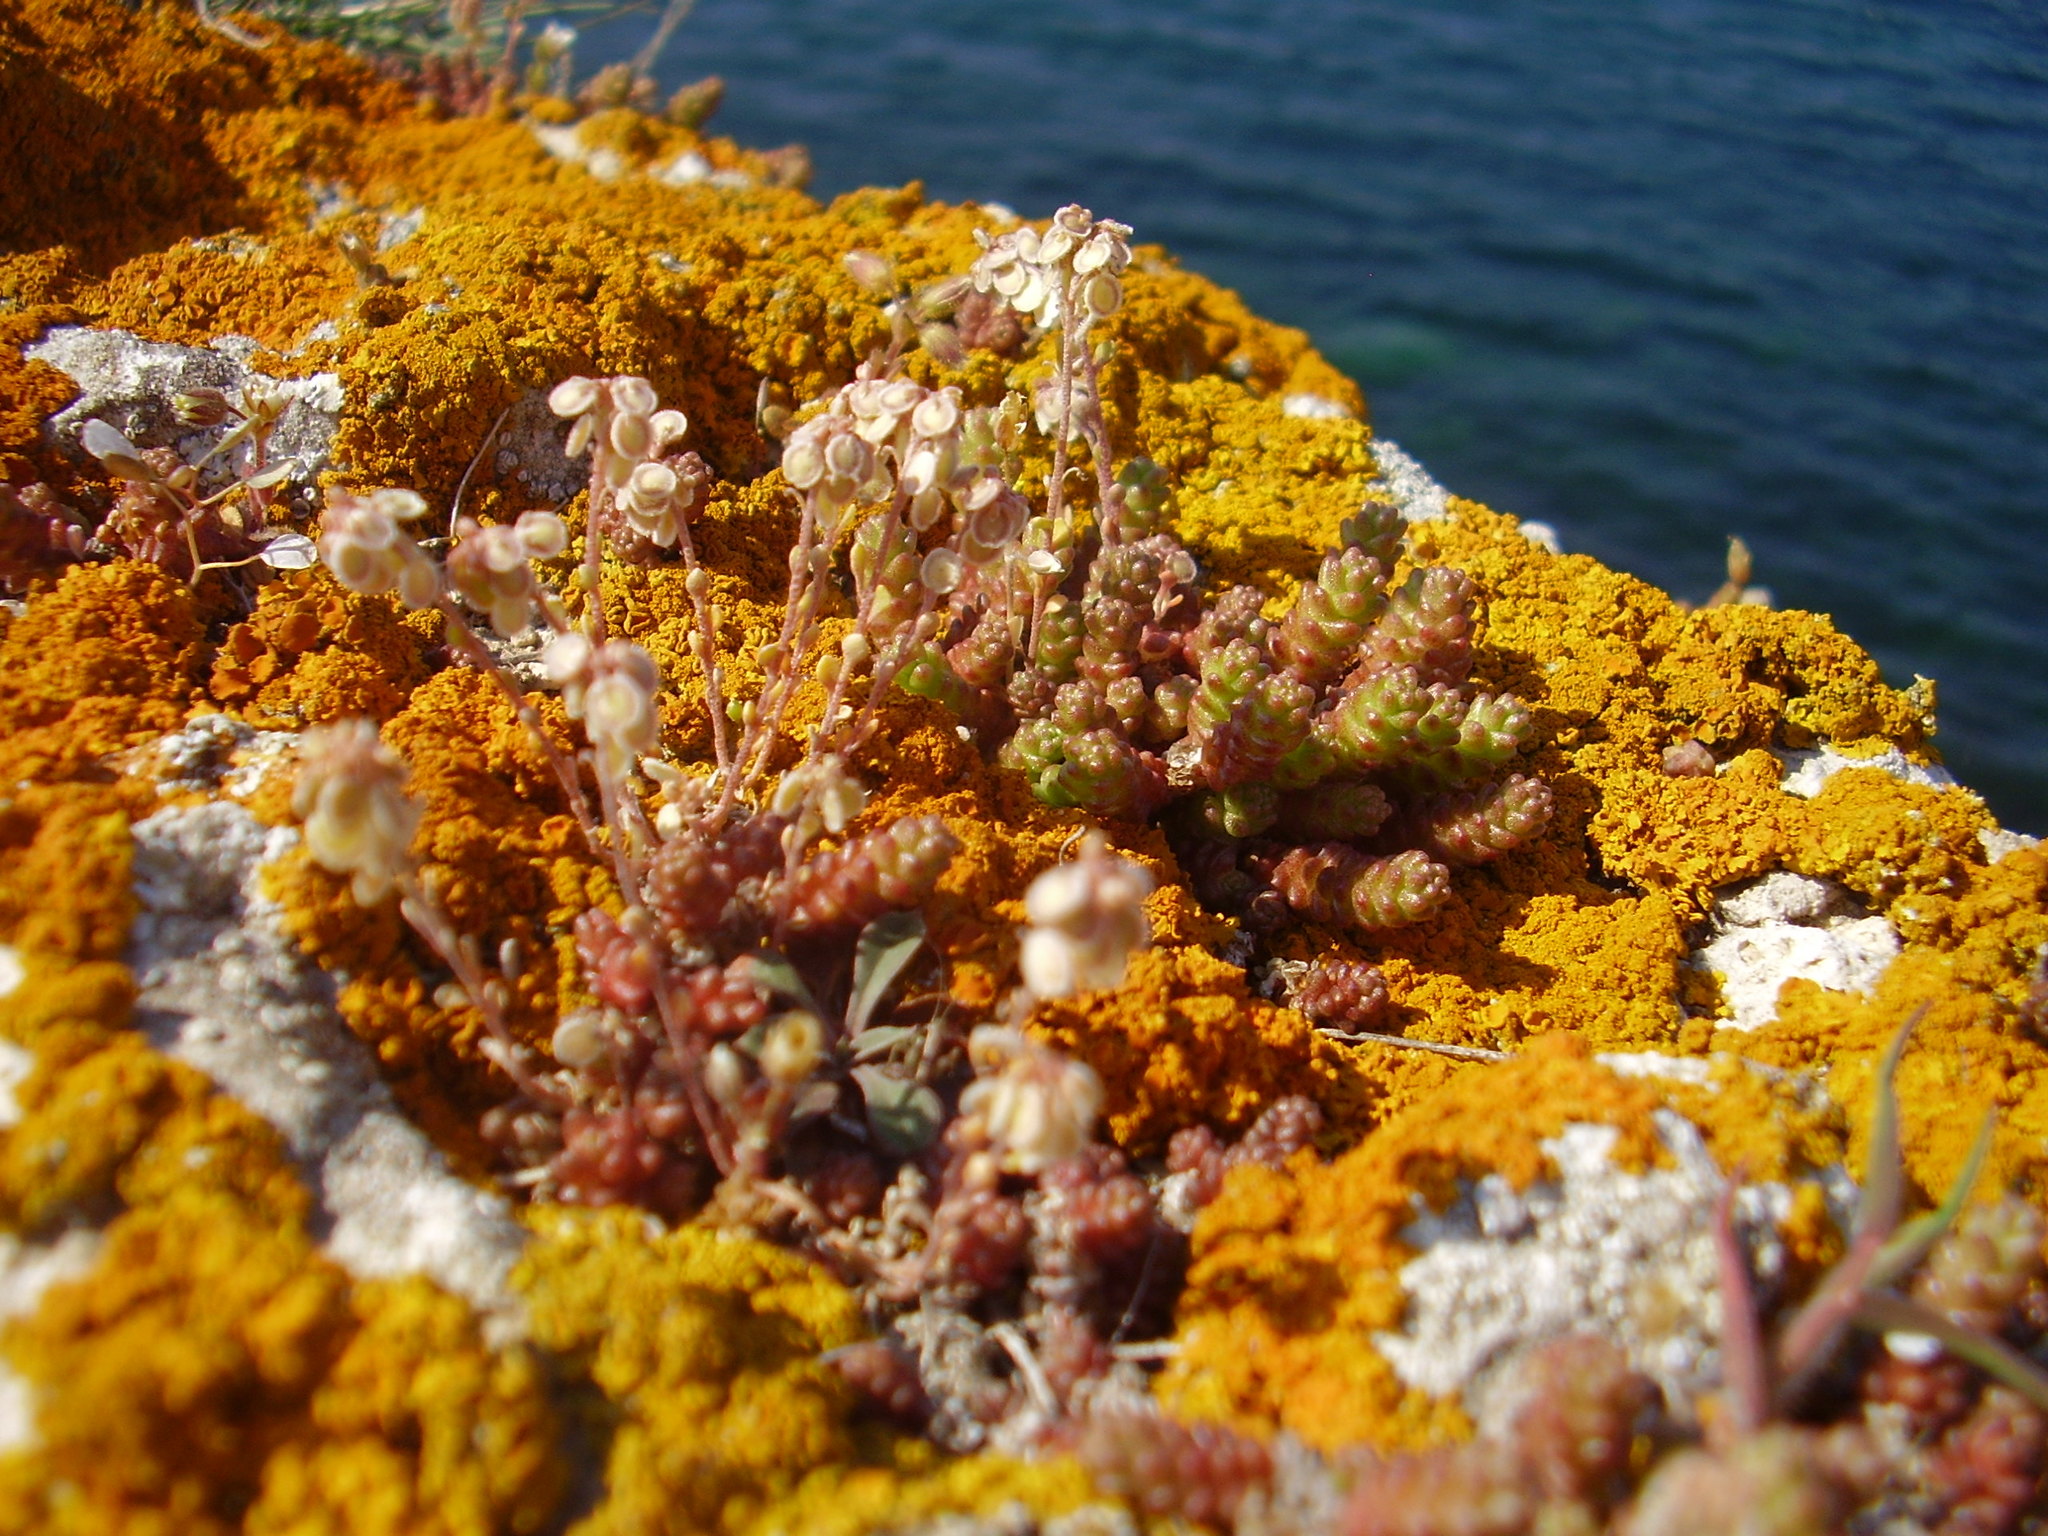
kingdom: Plantae
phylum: Tracheophyta
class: Magnoliopsida
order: Brassicales
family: Brassicaceae
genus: Clypeola
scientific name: Clypeola jonthlaspi
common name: Disk cress
